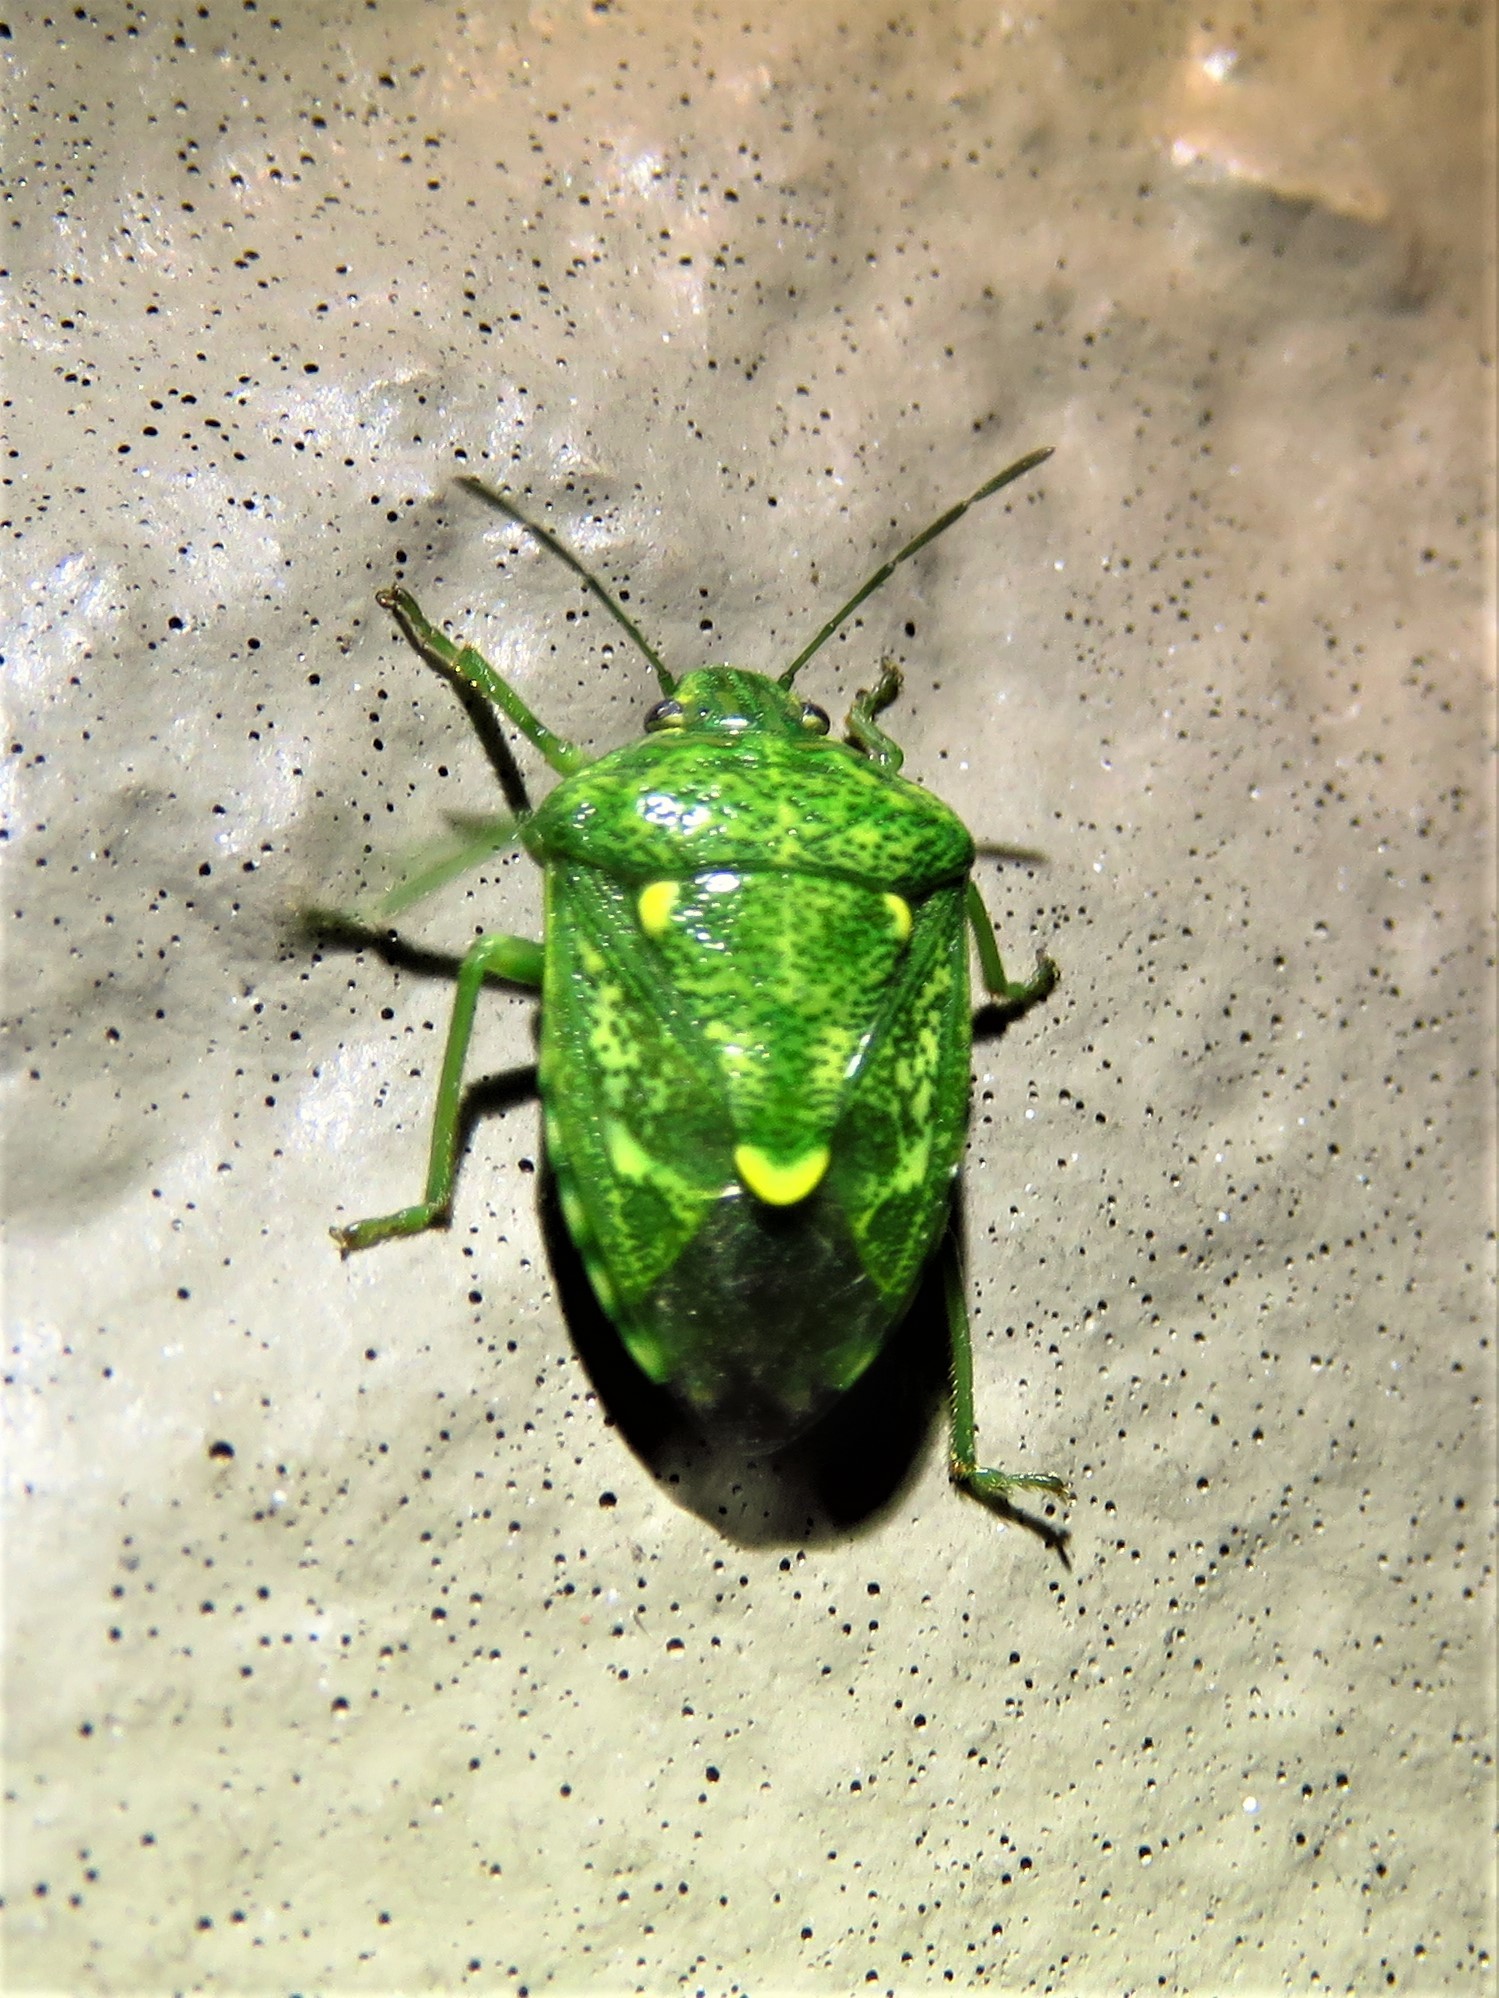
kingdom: Animalia
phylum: Arthropoda
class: Insecta
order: Hemiptera
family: Pentatomidae
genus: Banasa
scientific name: Banasa euchlora
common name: Cedar berry bug
